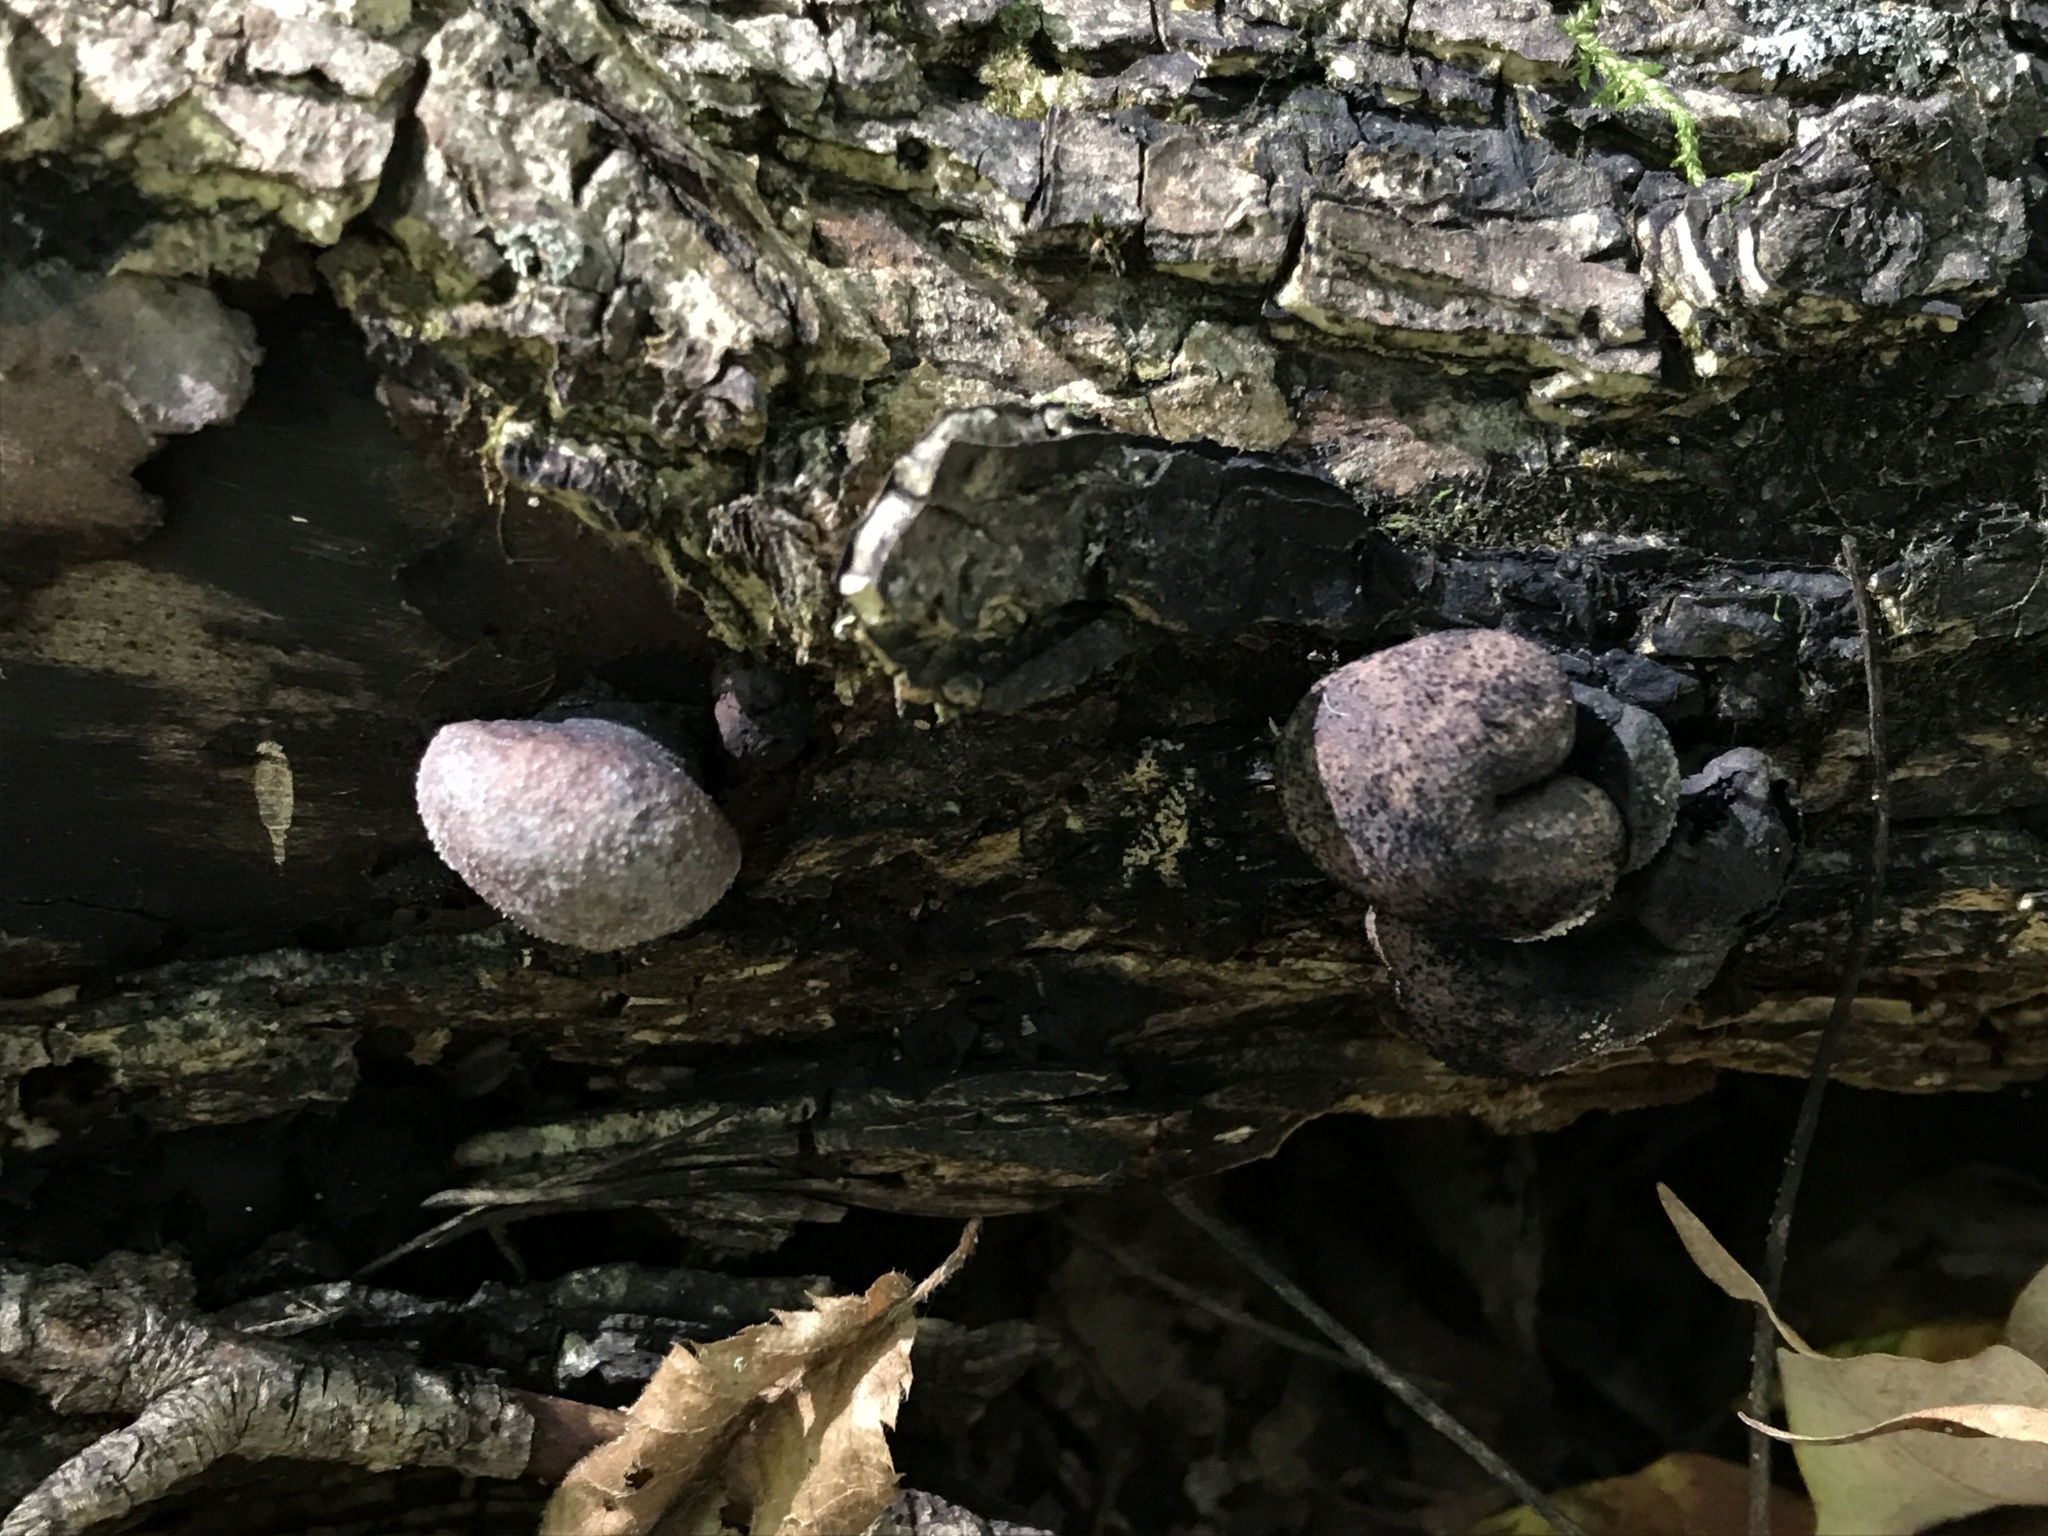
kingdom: Fungi
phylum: Ascomycota
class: Sordariomycetes
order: Xylariales
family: Hypoxylaceae
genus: Daldinia
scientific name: Daldinia childiae
